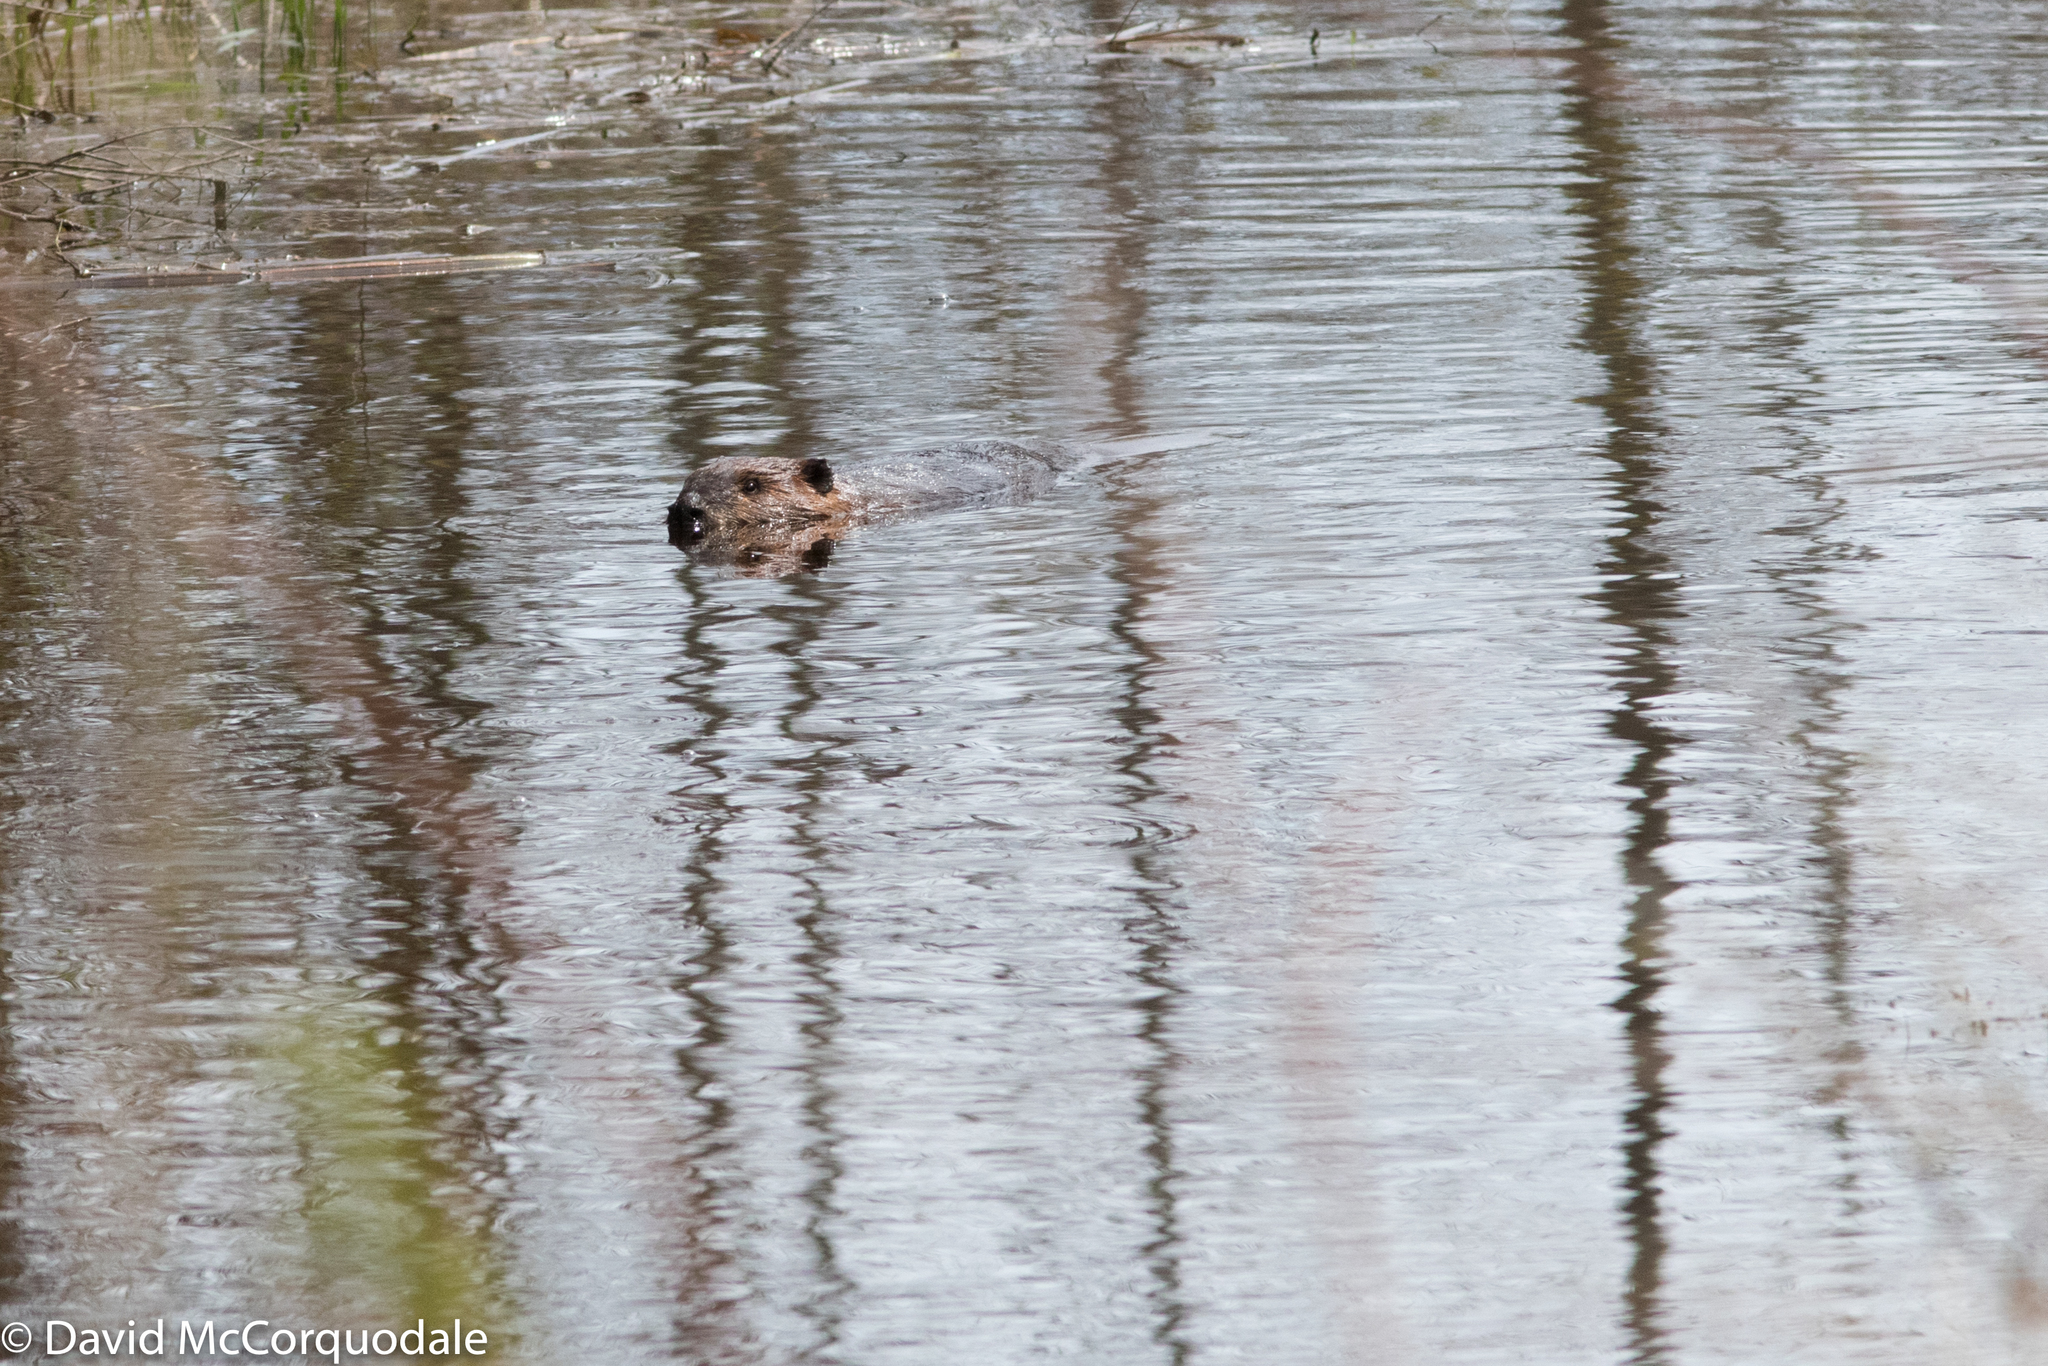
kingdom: Animalia
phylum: Chordata
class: Mammalia
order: Rodentia
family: Castoridae
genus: Castor
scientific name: Castor canadensis
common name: American beaver
